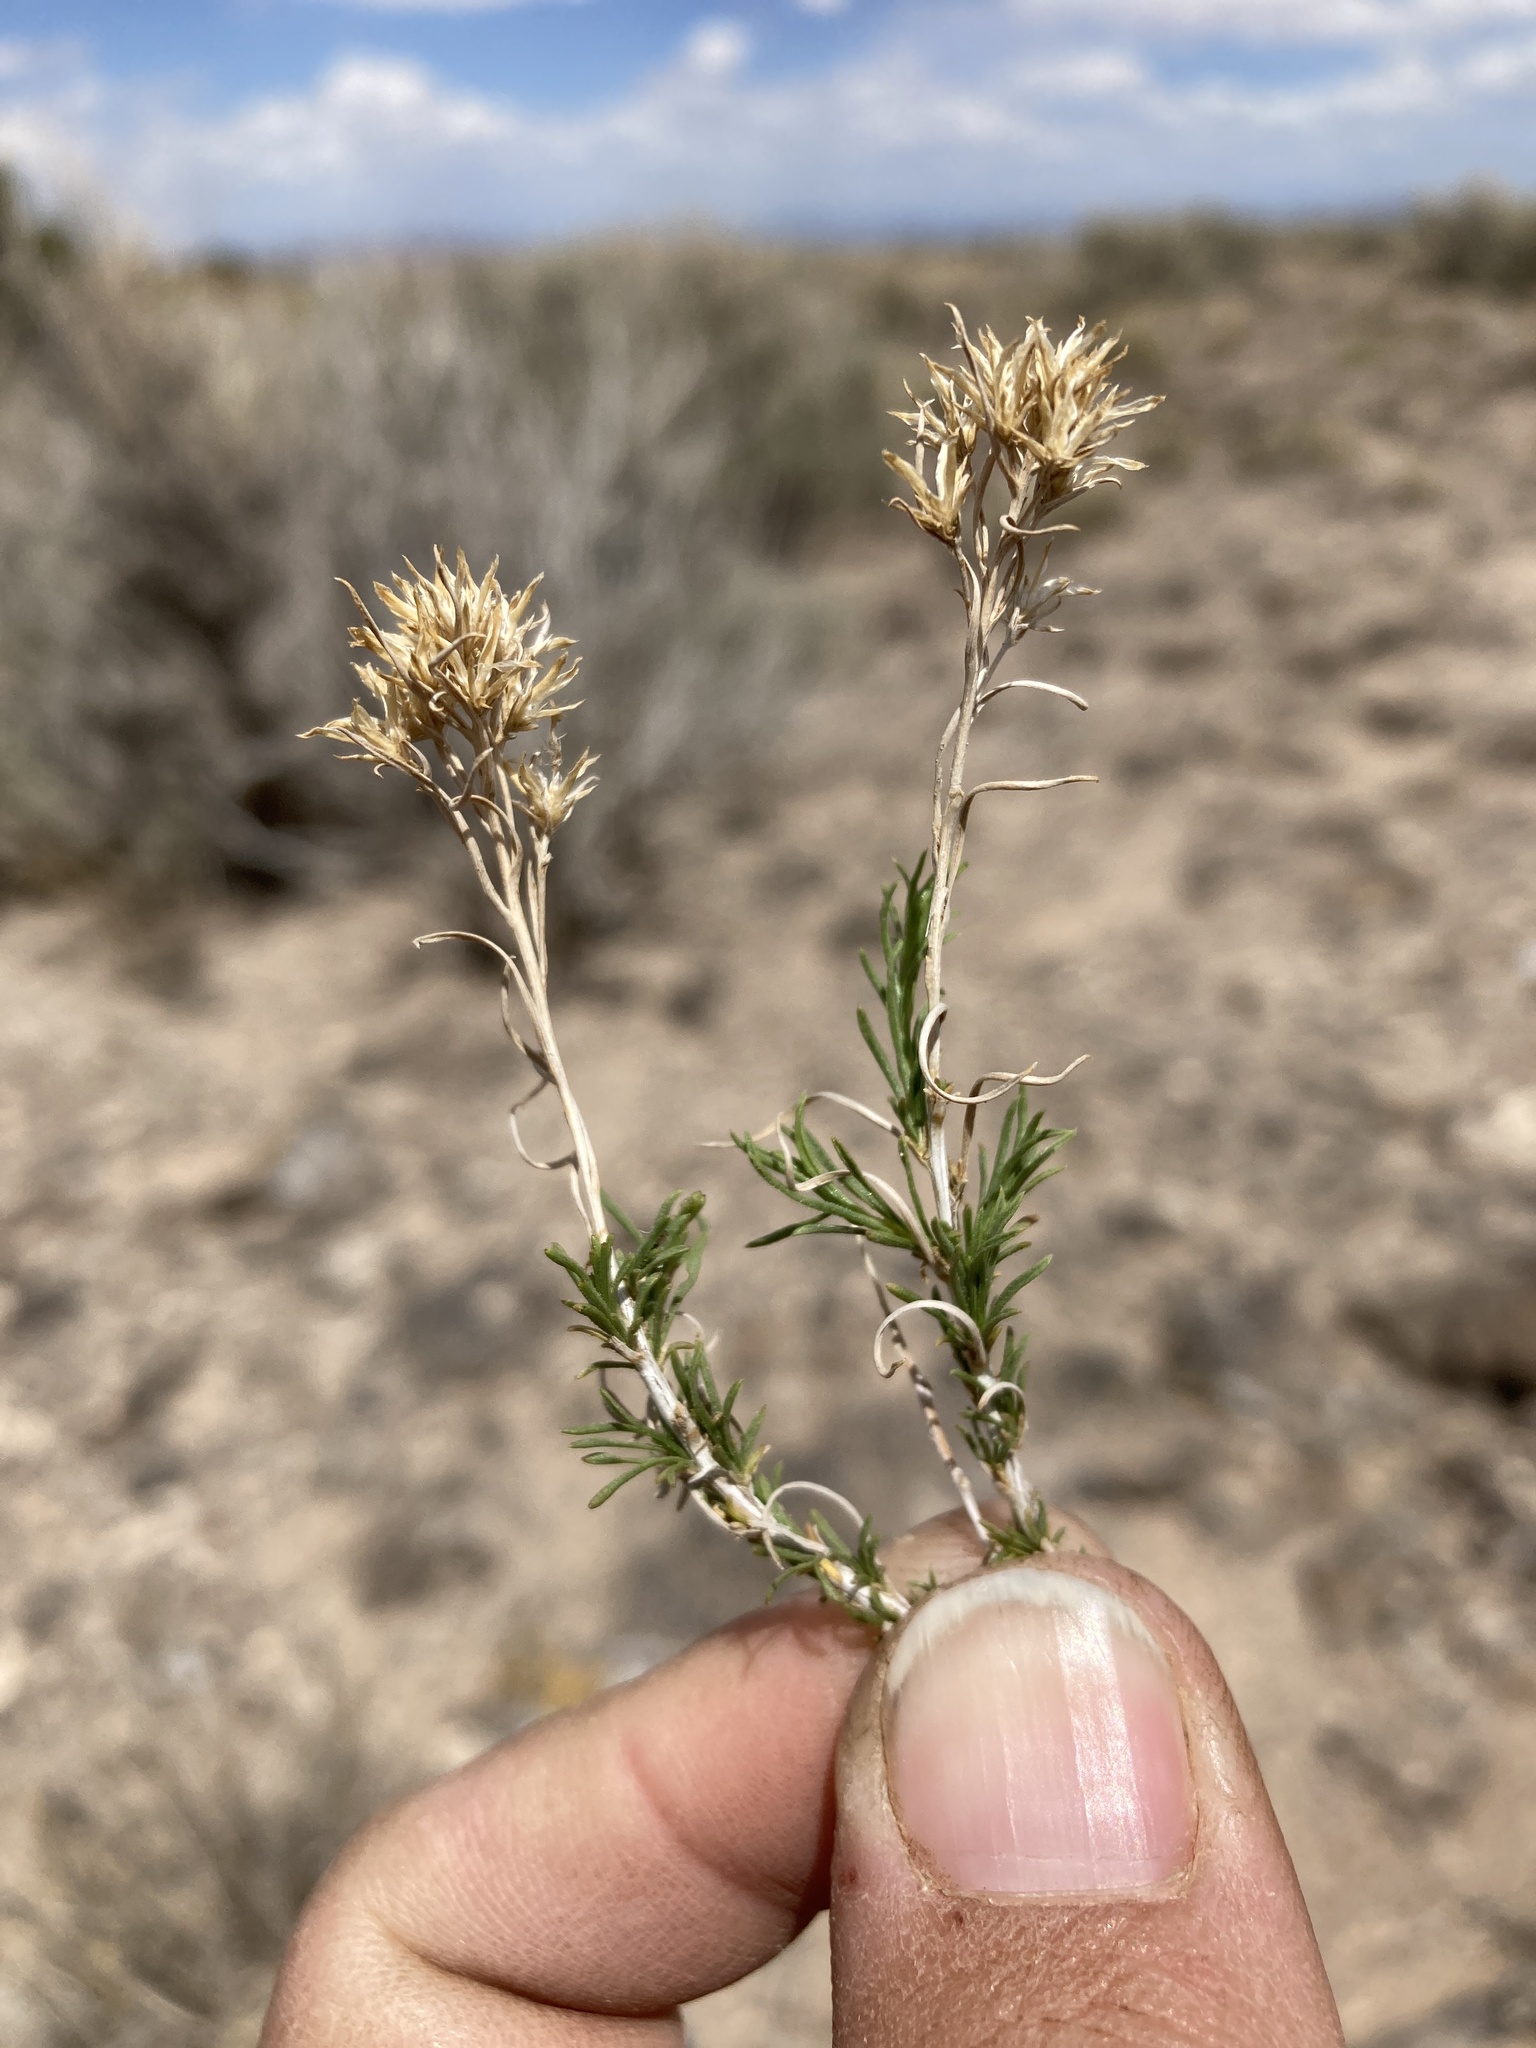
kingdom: Plantae
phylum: Tracheophyta
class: Magnoliopsida
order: Asterales
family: Asteraceae
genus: Chrysothamnus
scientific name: Chrysothamnus greenei
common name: Greene's rabbitbrush
